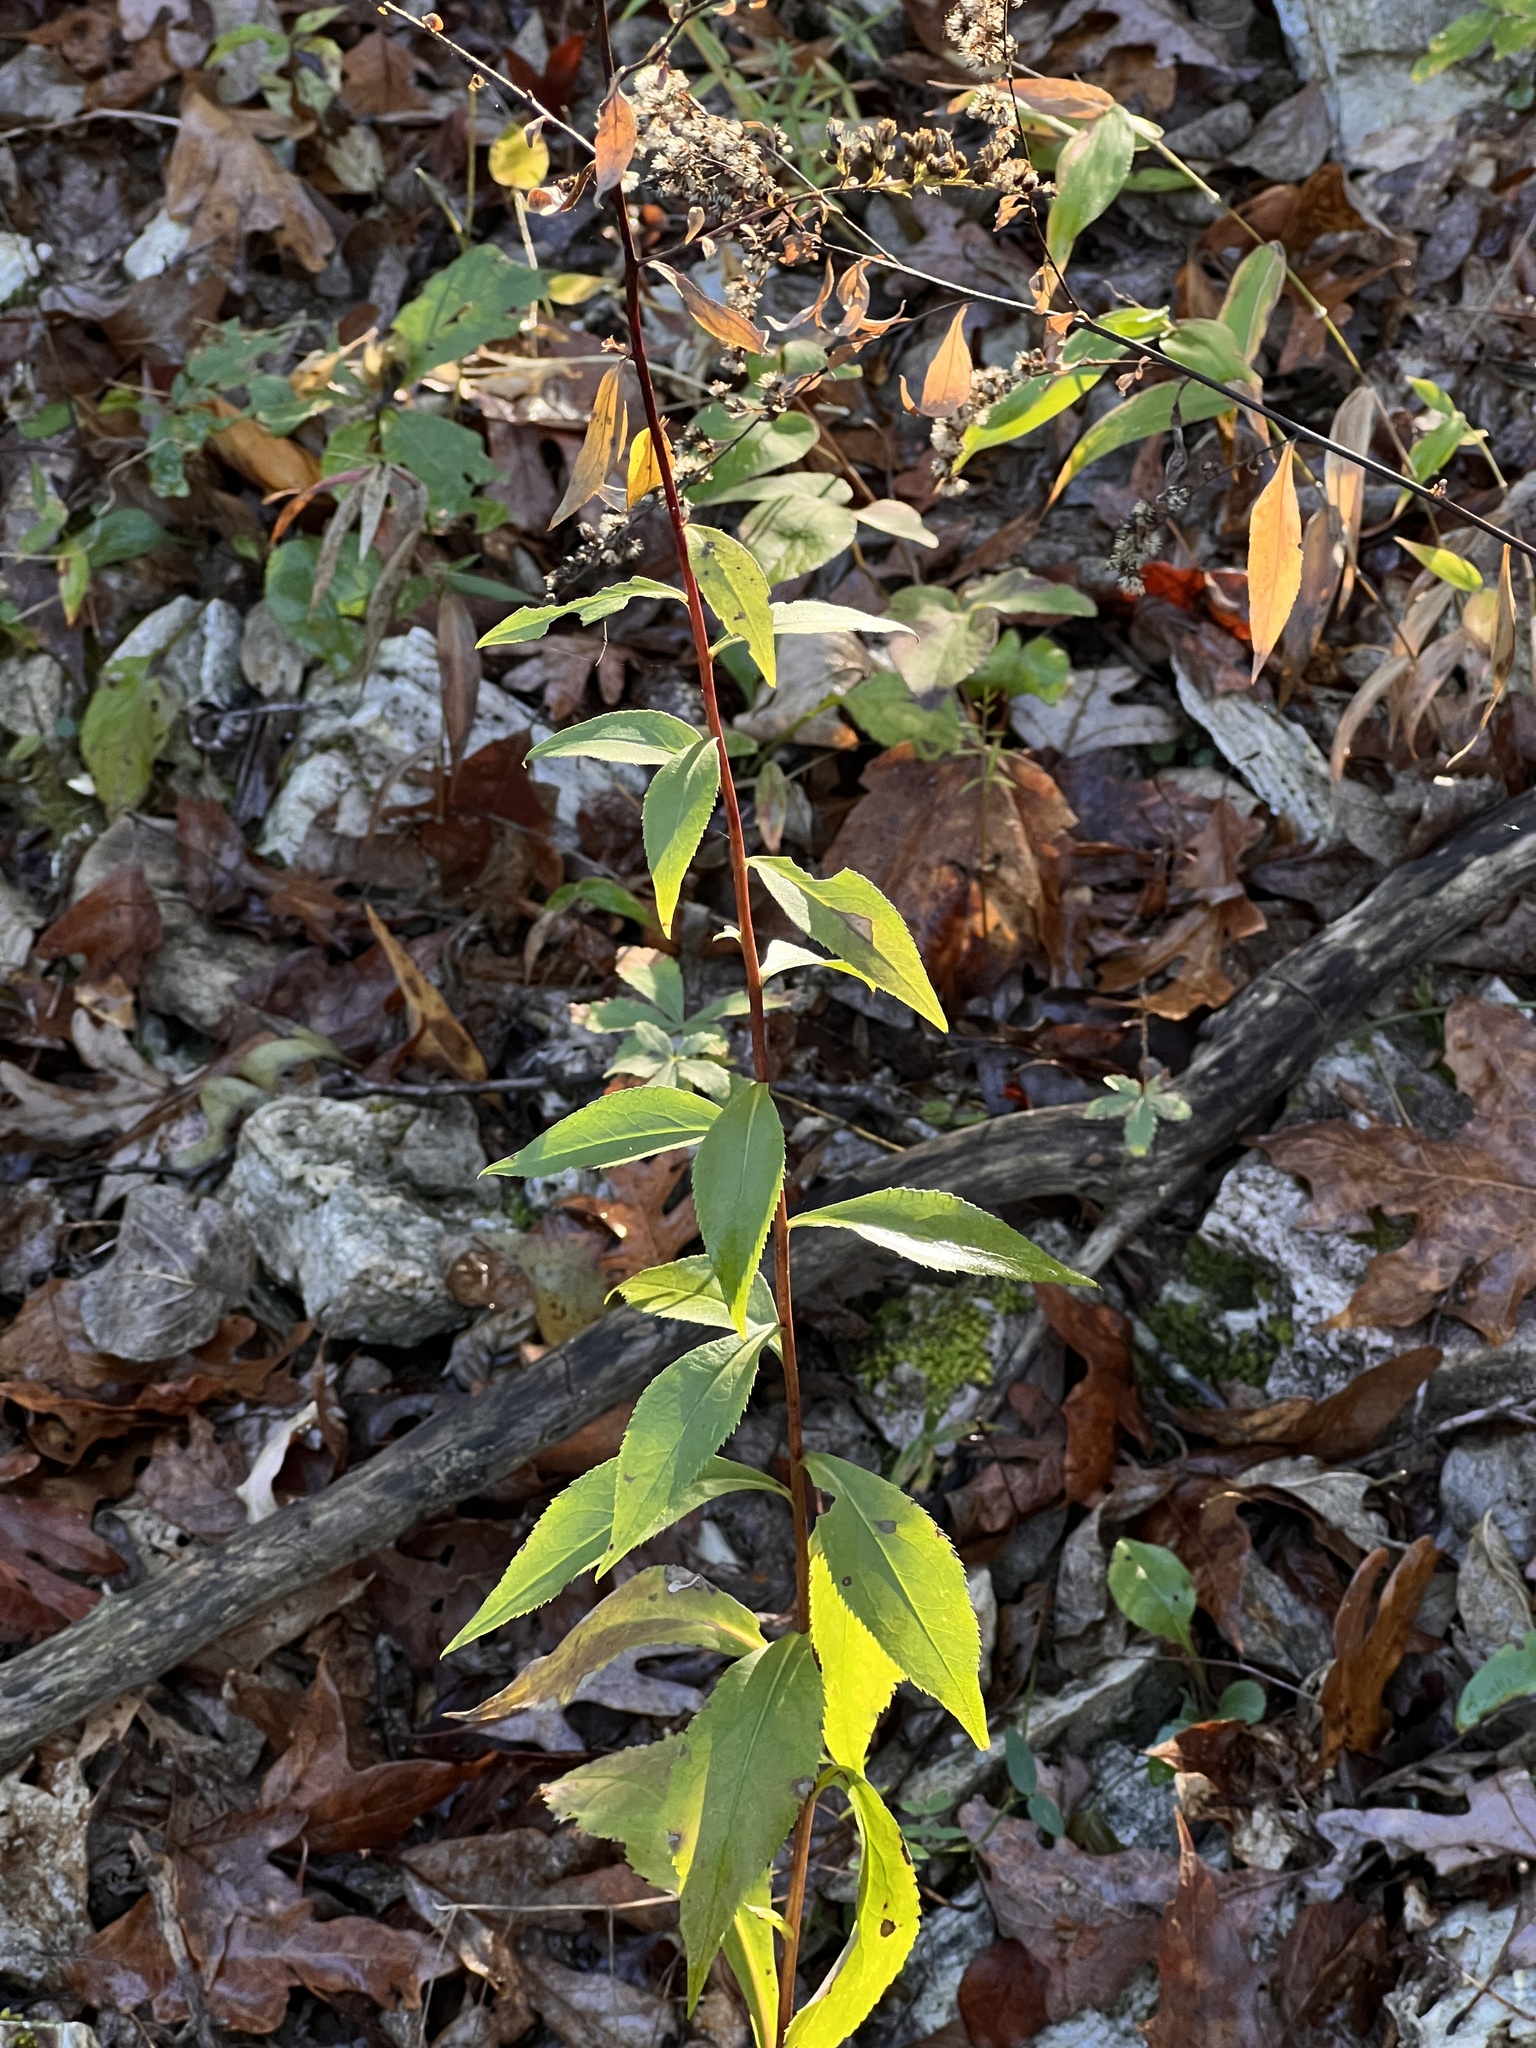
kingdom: Plantae
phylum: Tracheophyta
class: Magnoliopsida
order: Asterales
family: Asteraceae
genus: Solidago
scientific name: Solidago arguta
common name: Atlantic goldenrod
